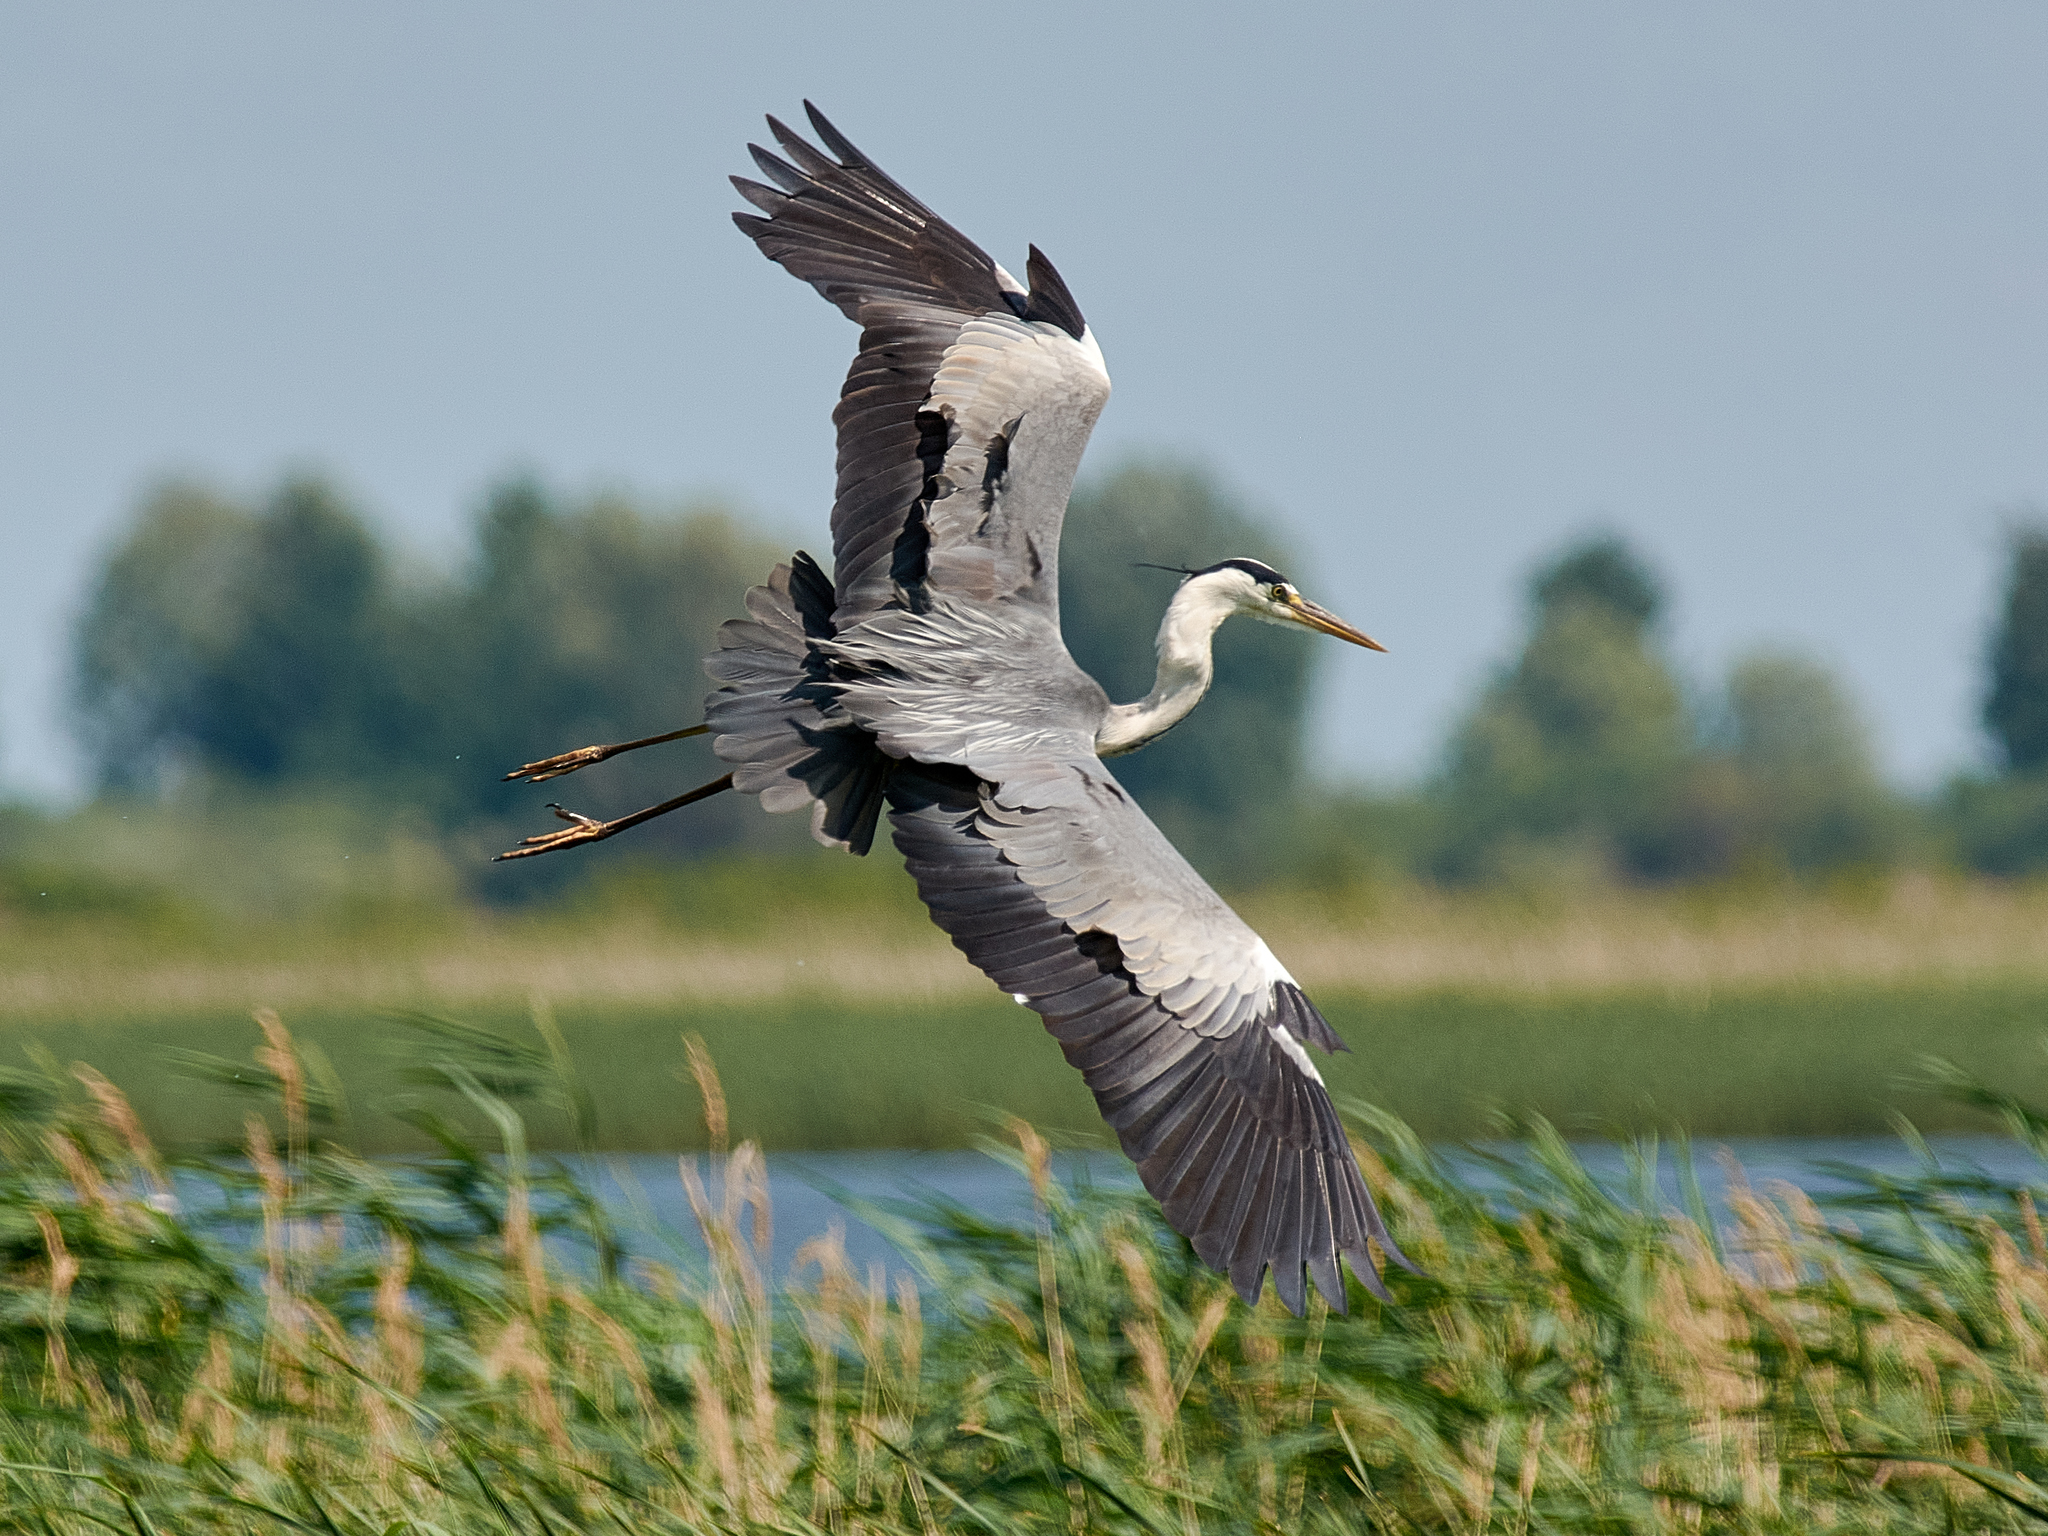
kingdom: Animalia
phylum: Chordata
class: Aves
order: Pelecaniformes
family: Ardeidae
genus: Ardea
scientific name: Ardea cinerea
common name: Grey heron
